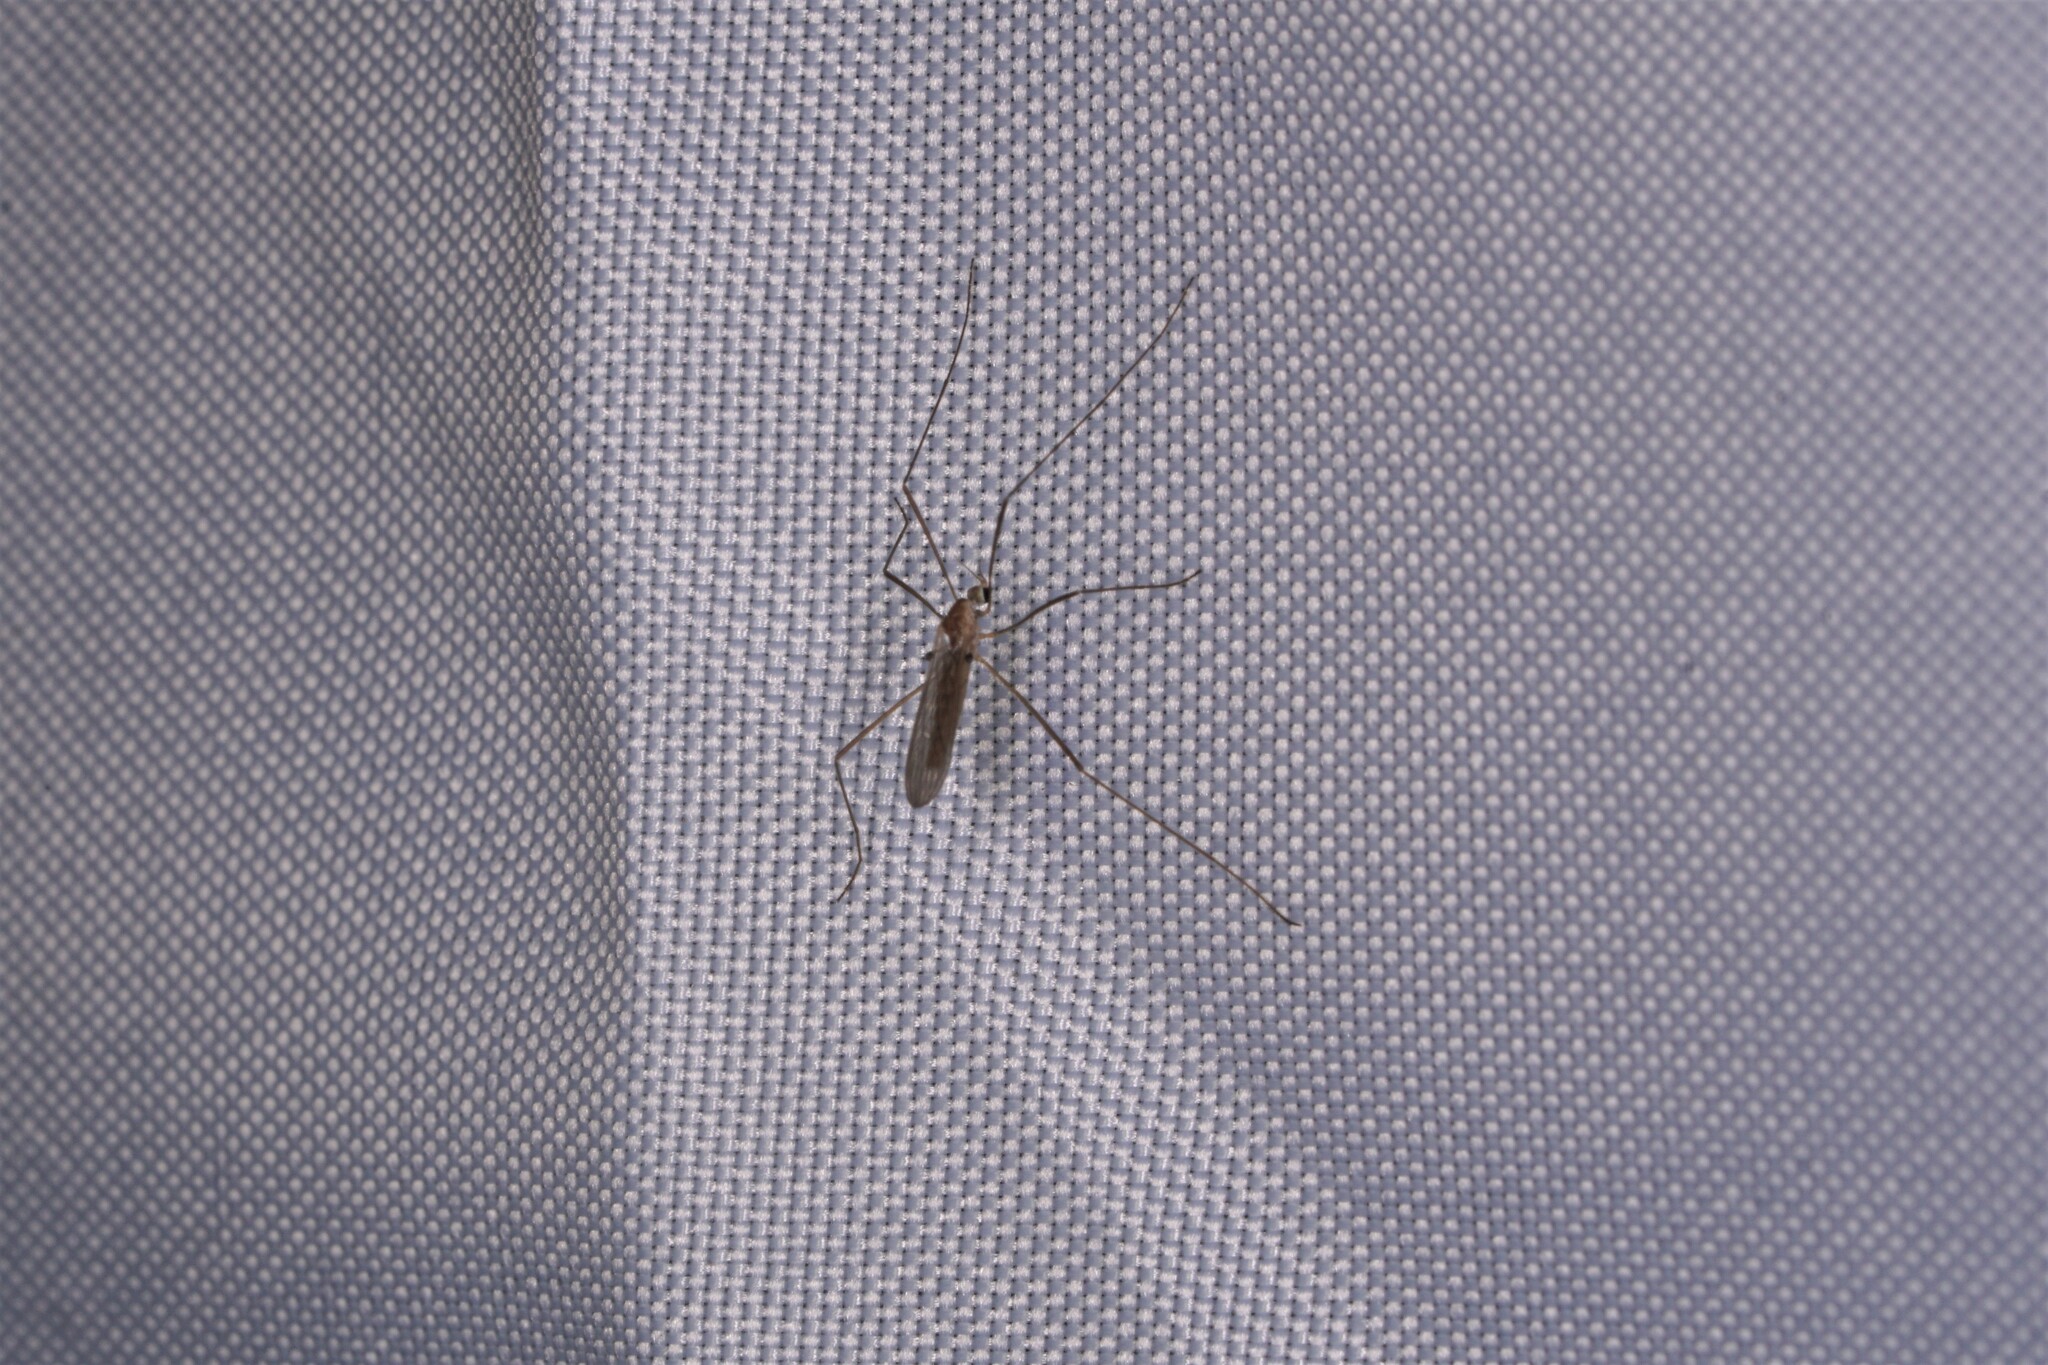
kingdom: Animalia
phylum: Arthropoda
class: Insecta
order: Diptera
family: Limoniidae
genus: Erioptera
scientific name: Erioptera septemtrionis
